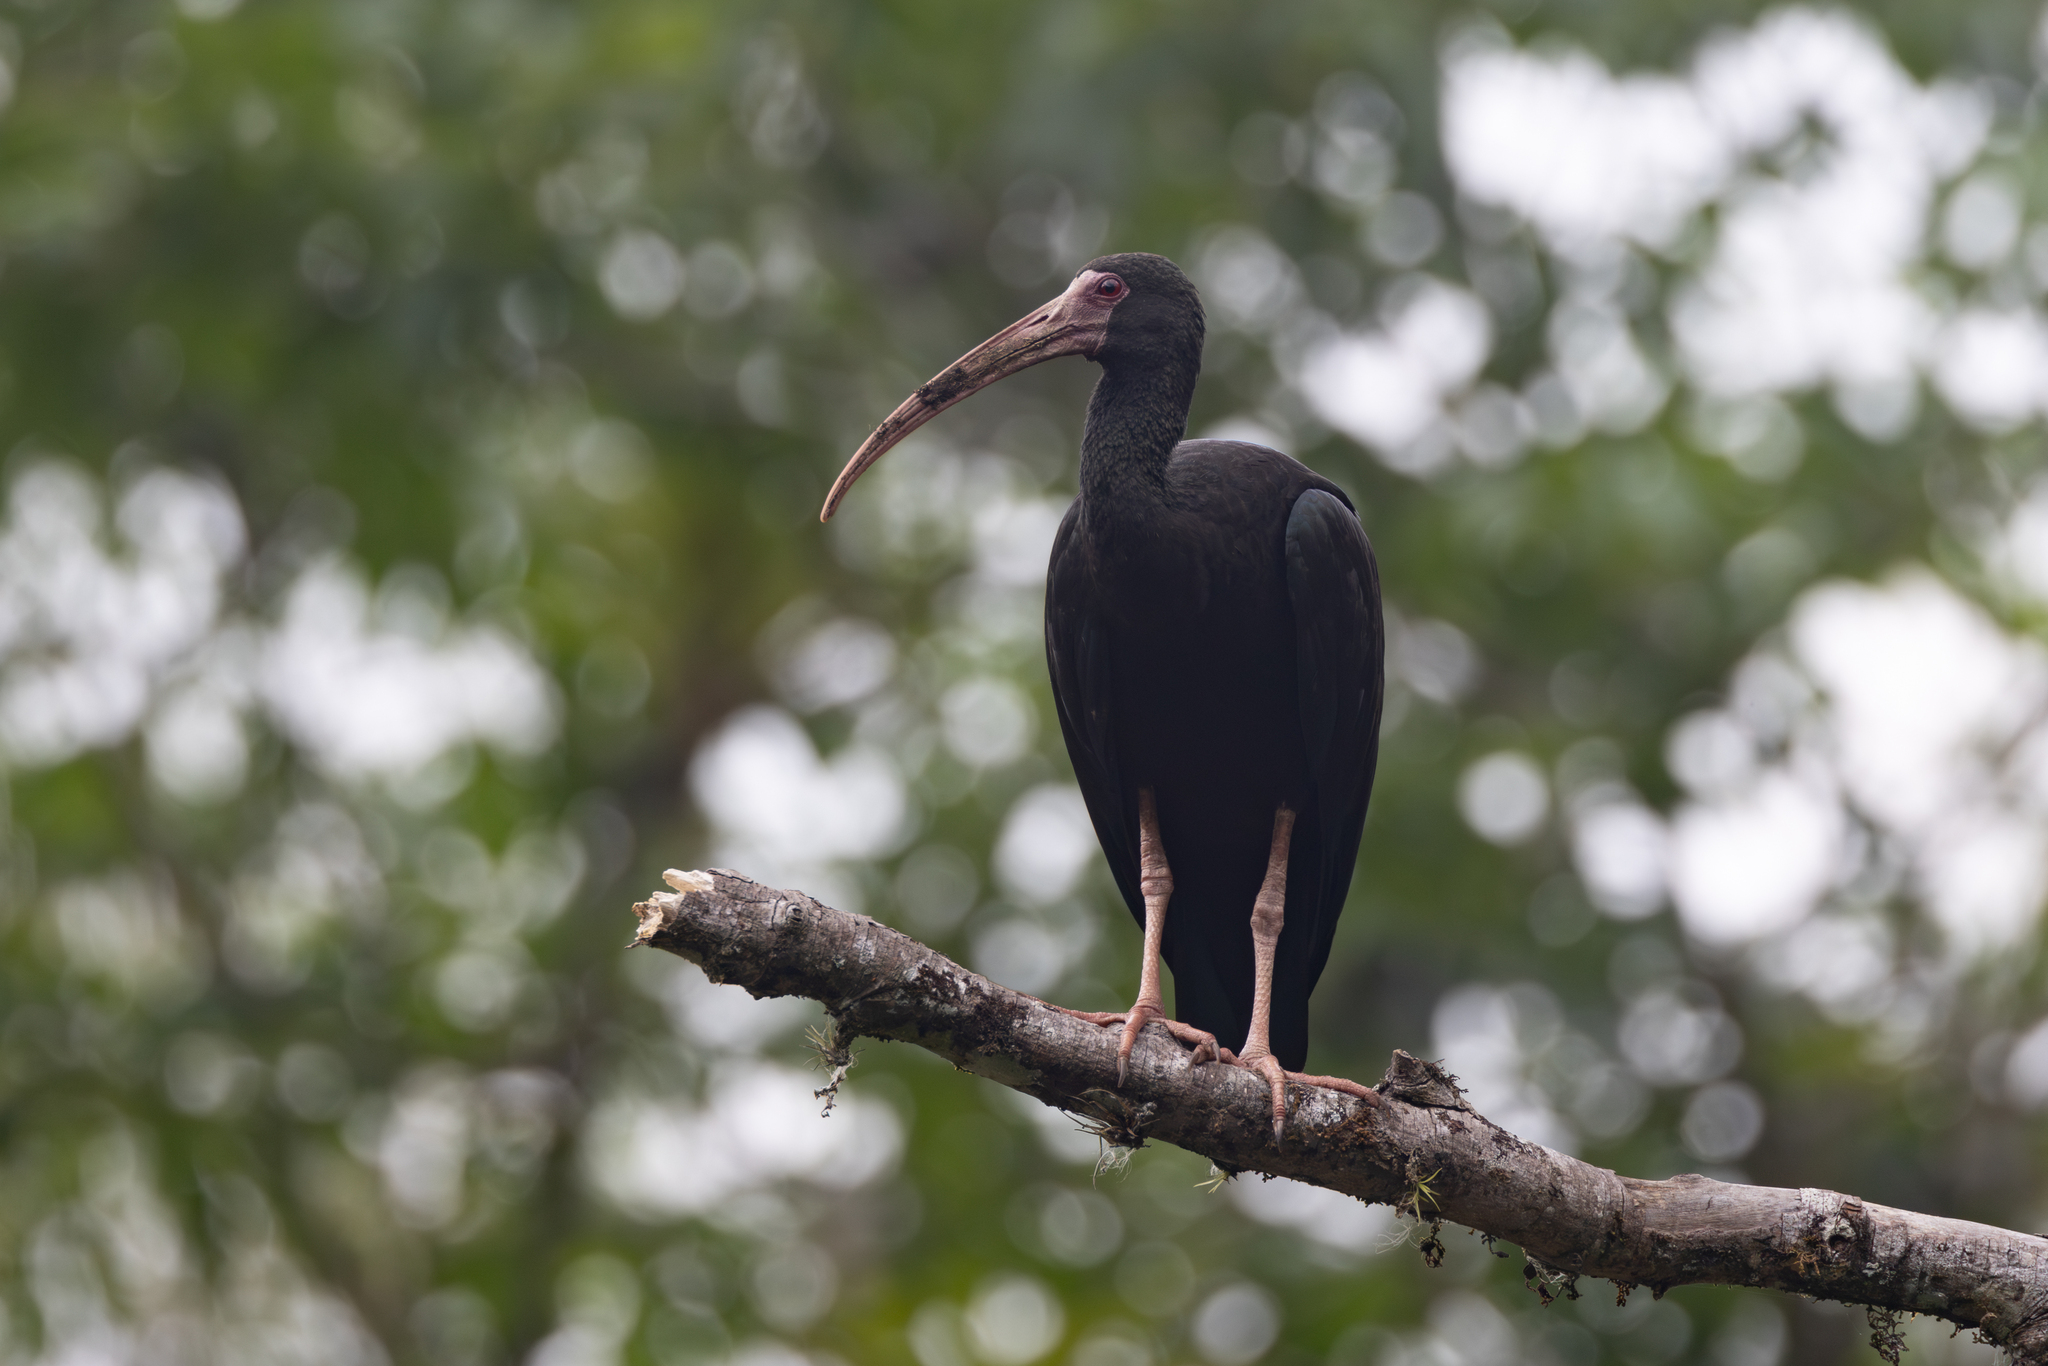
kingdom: Animalia
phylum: Chordata
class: Aves
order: Pelecaniformes
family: Threskiornithidae
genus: Phimosus
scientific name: Phimosus infuscatus
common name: Bare-faced ibis
